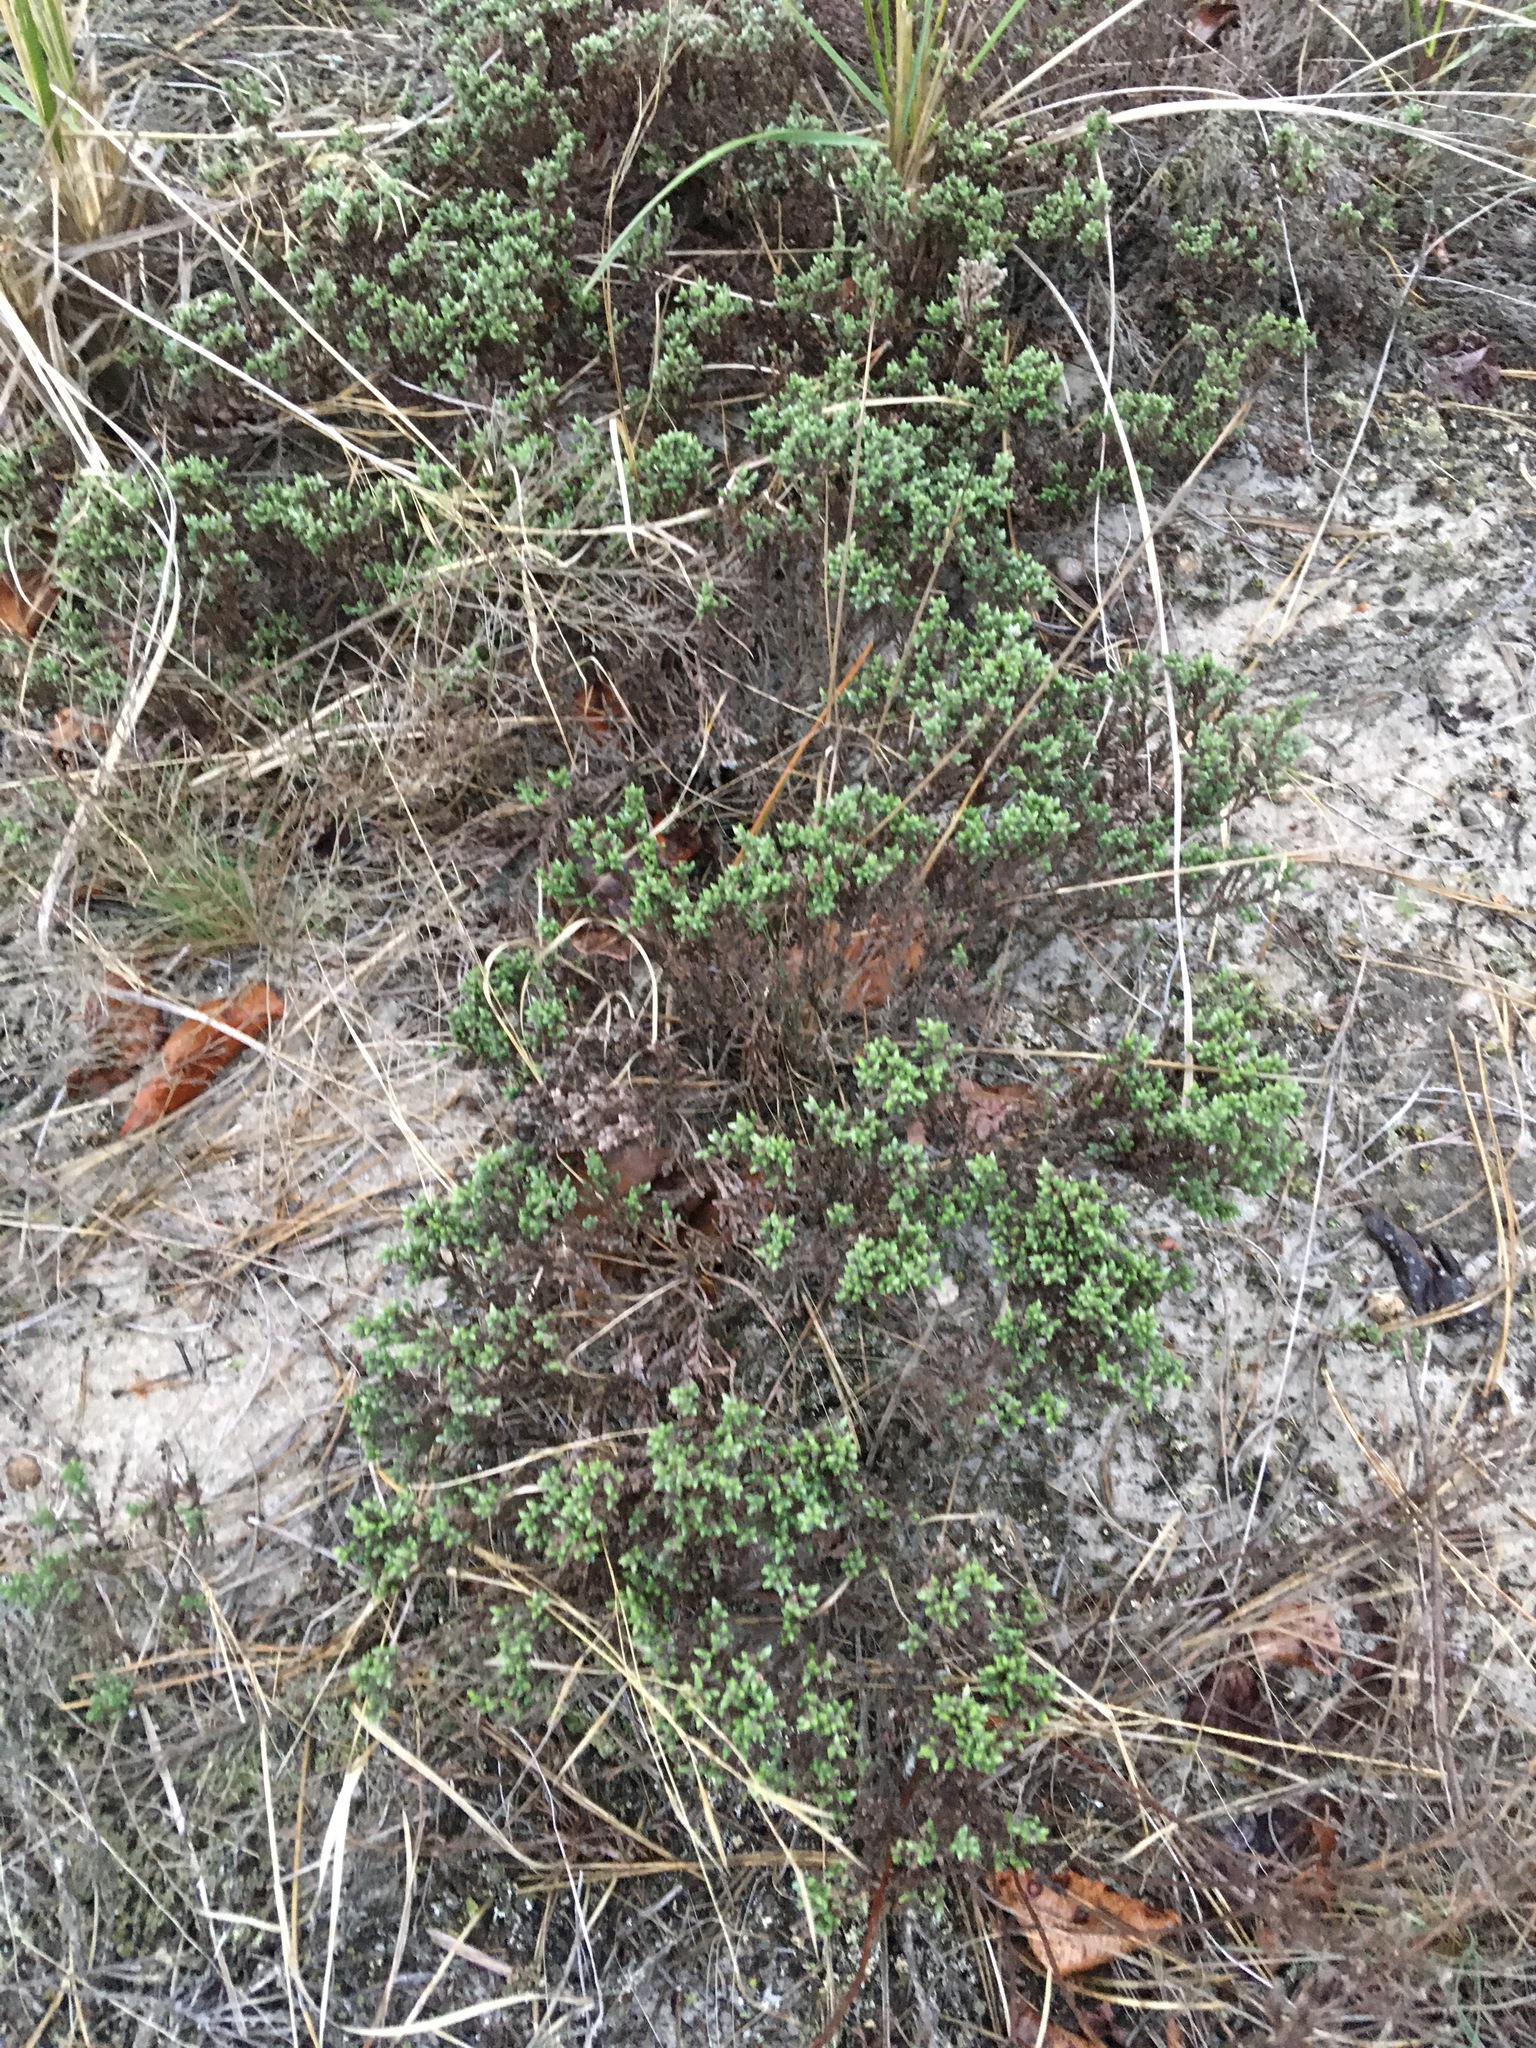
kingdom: Plantae
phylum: Tracheophyta
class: Magnoliopsida
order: Malvales
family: Cistaceae
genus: Hudsonia
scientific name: Hudsonia tomentosa
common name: Beach-heath
